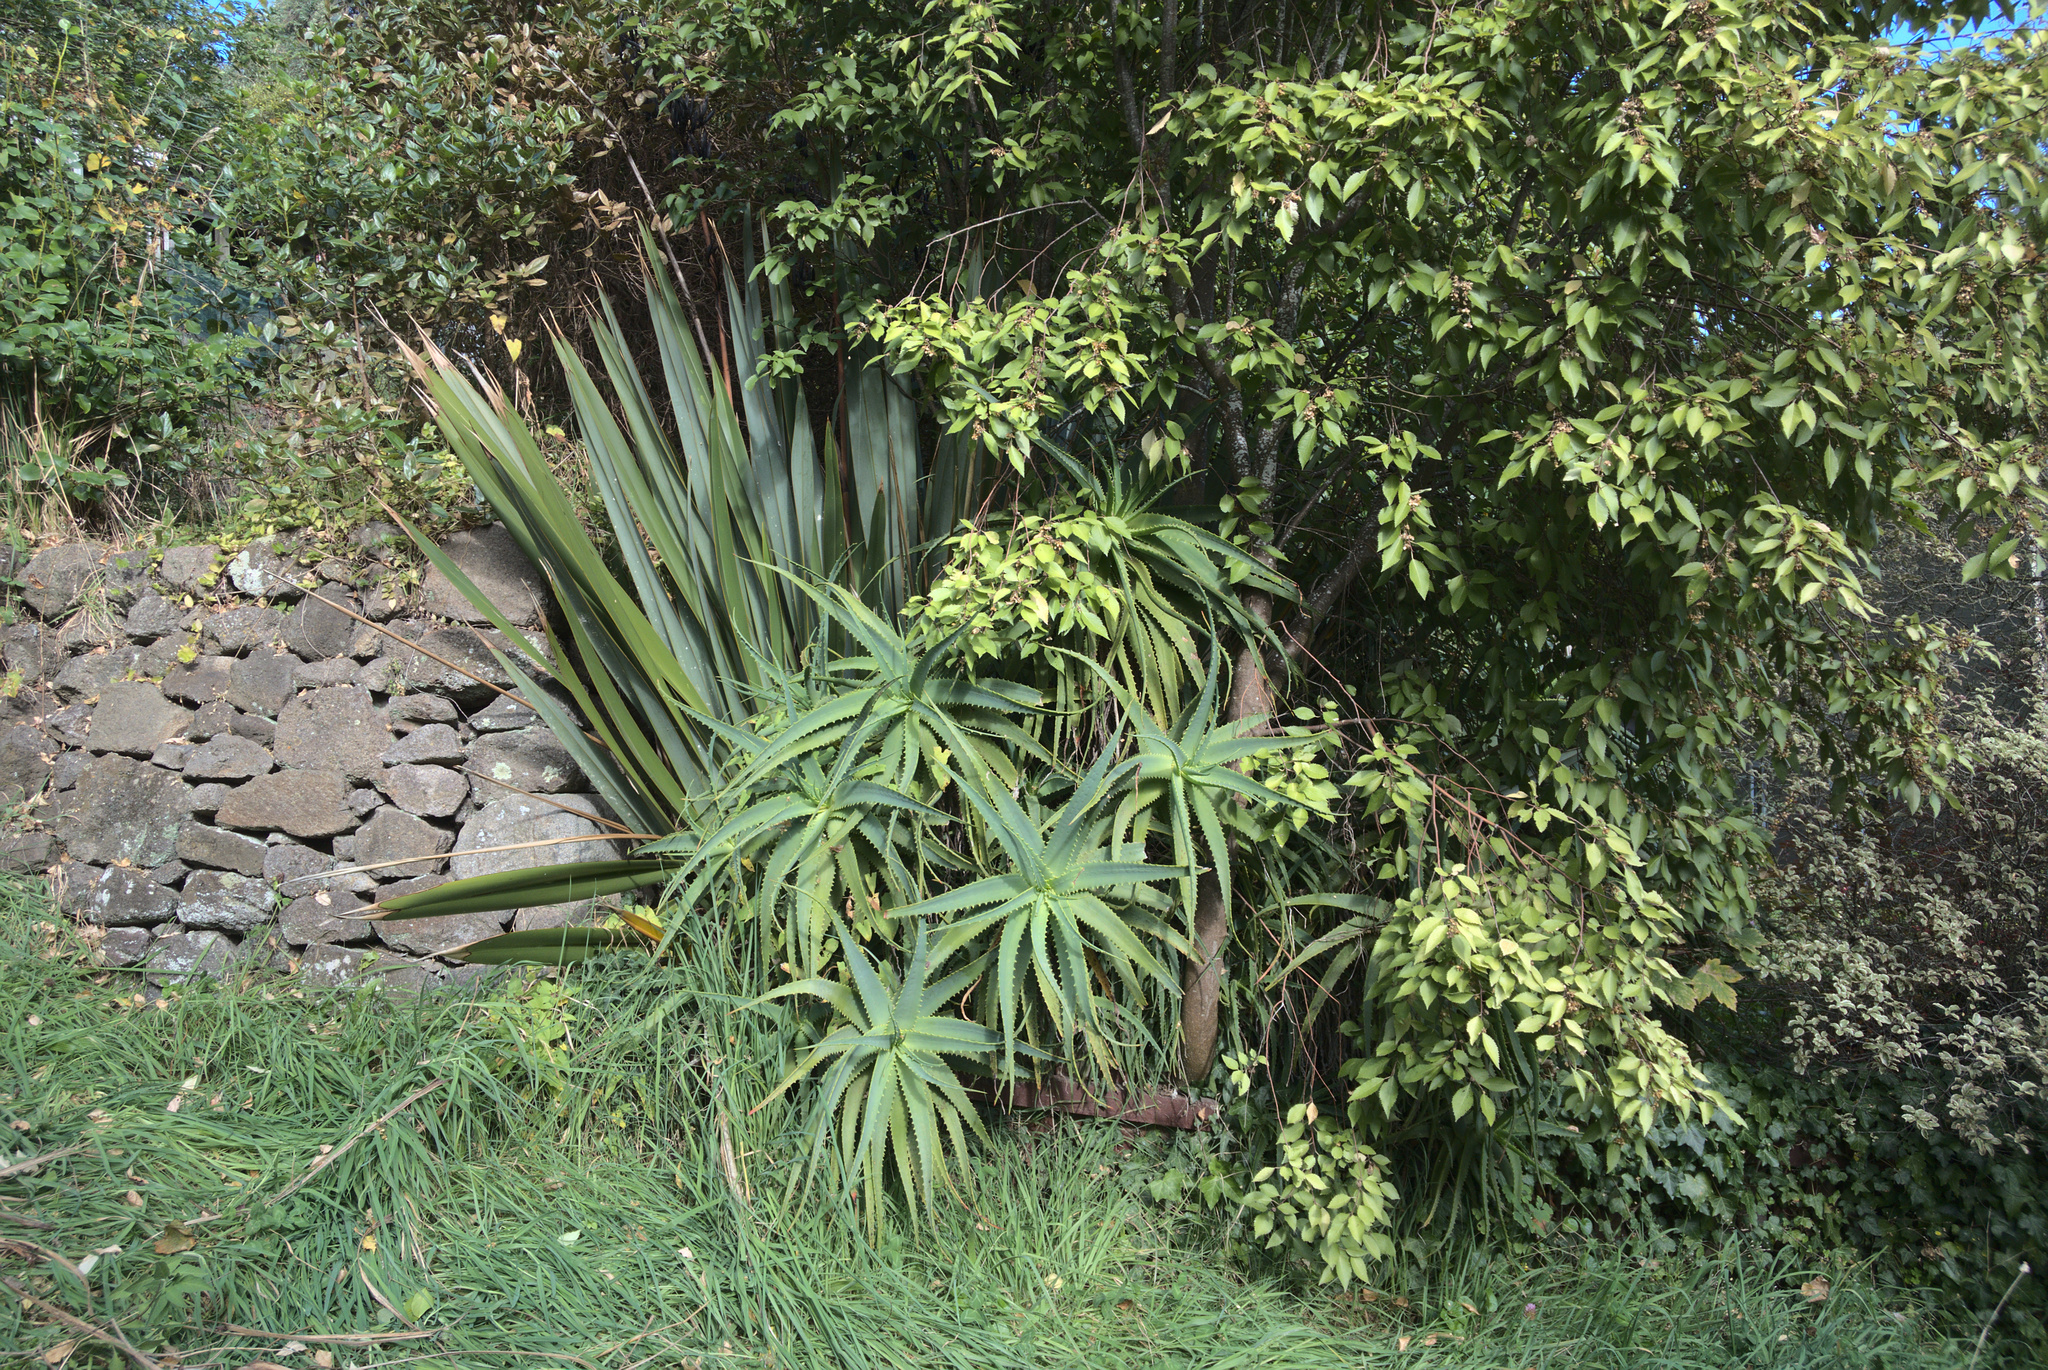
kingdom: Plantae
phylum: Tracheophyta
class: Liliopsida
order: Asparagales
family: Asphodelaceae
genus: Aloe
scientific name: Aloe arborescens
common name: Candelabra aloe
